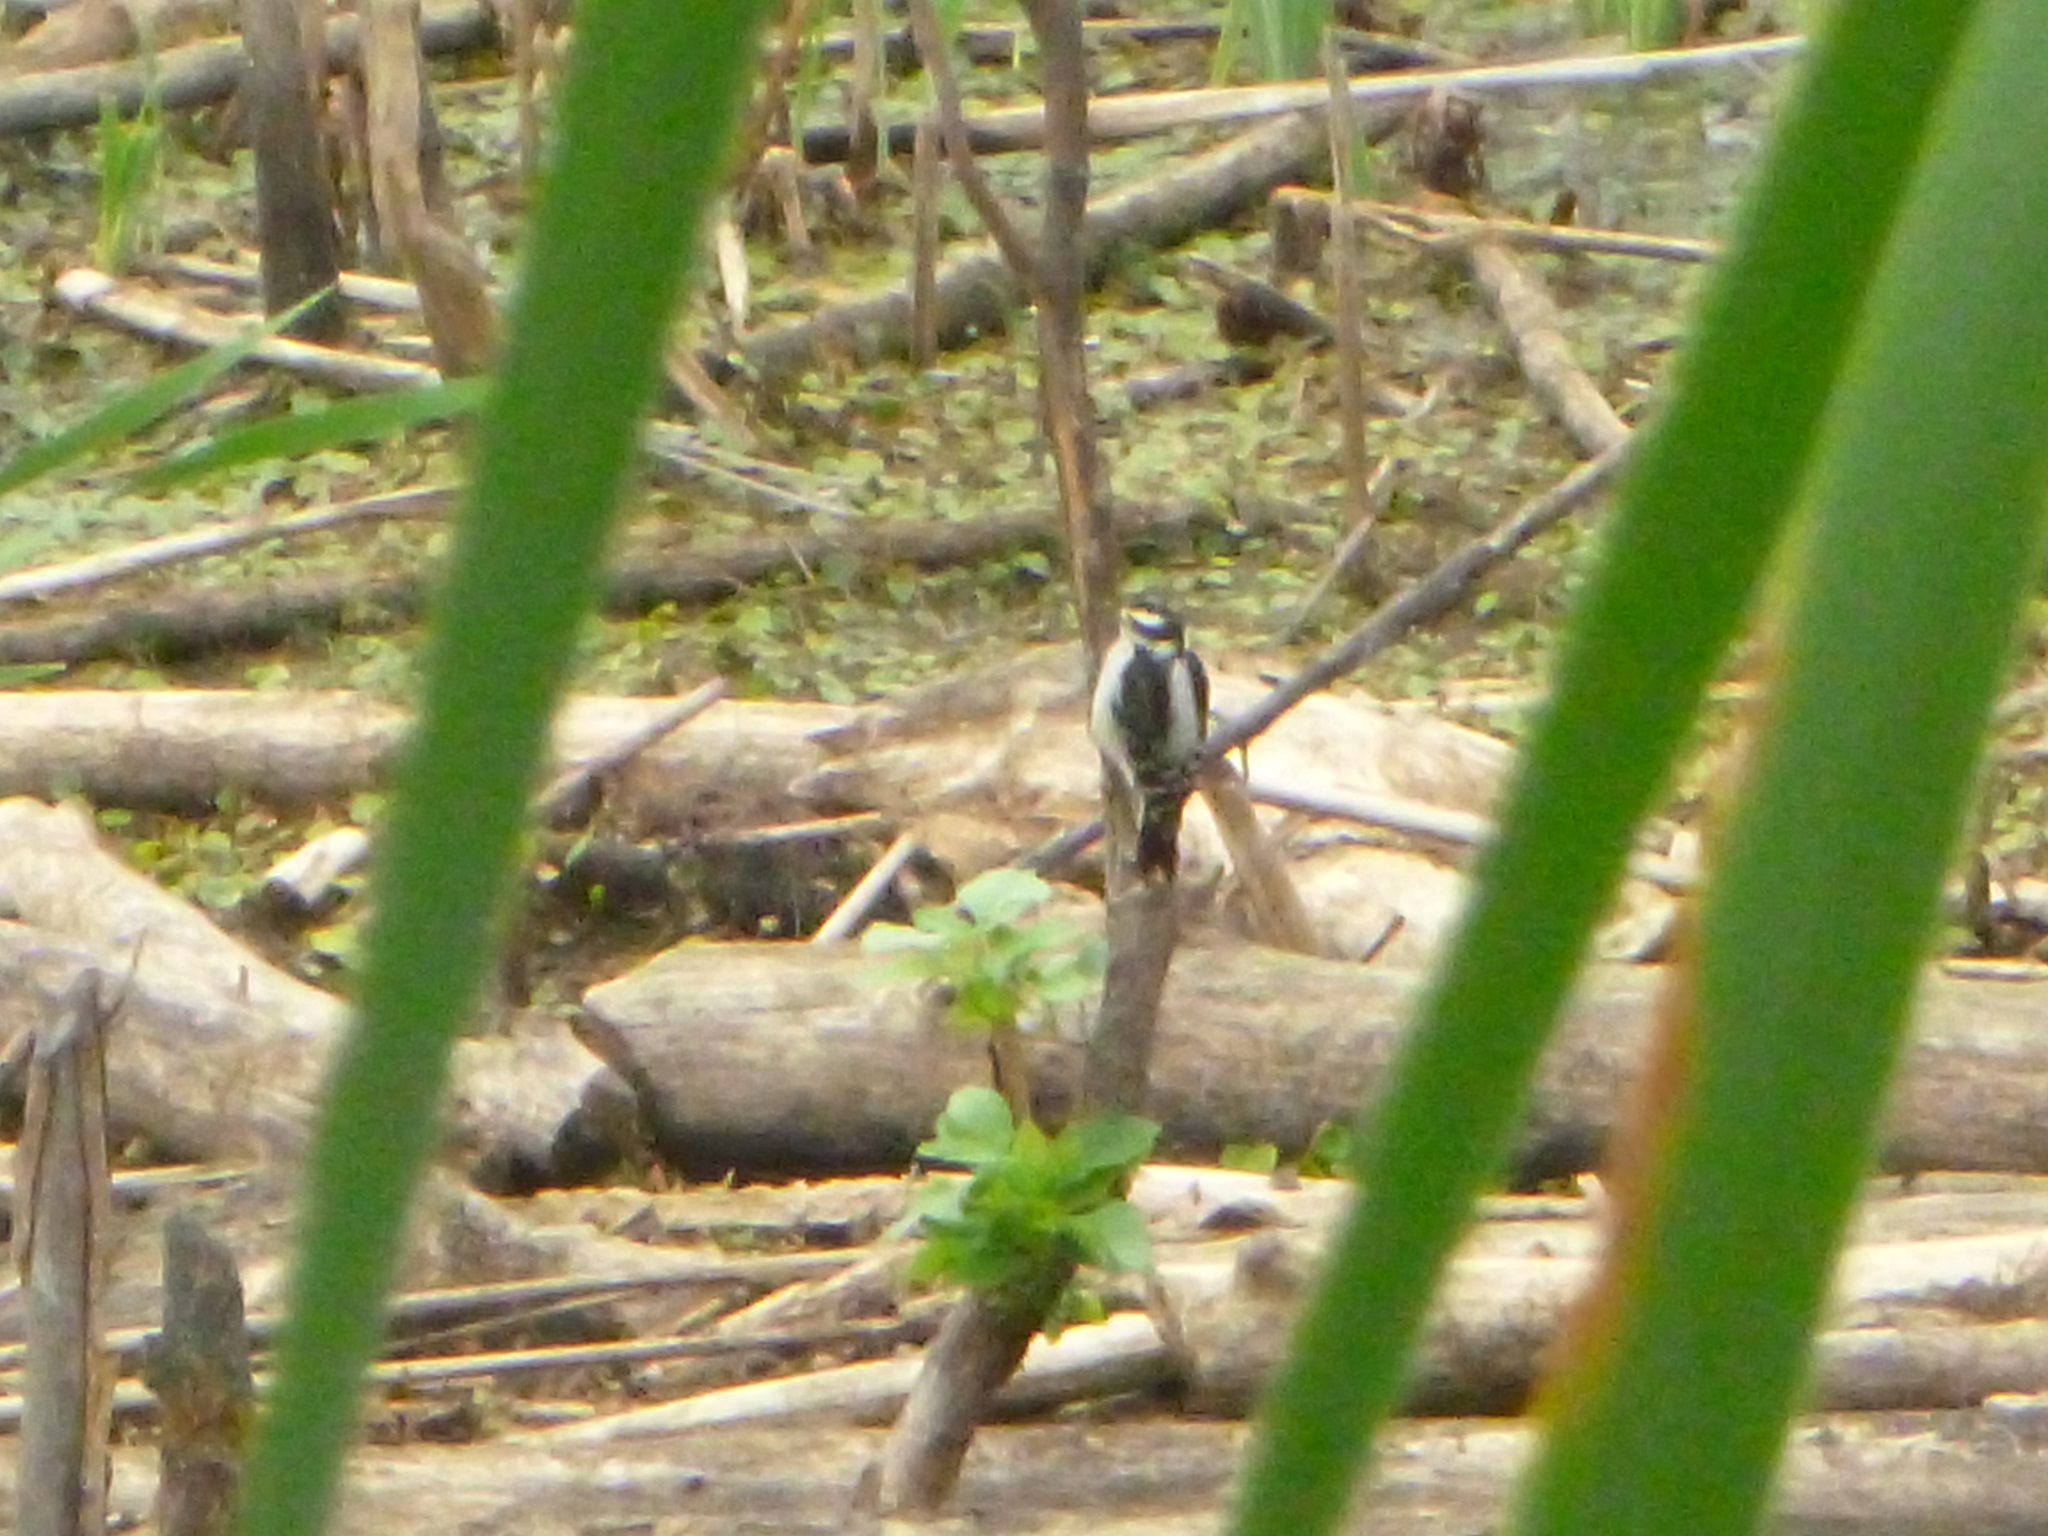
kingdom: Animalia
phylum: Chordata
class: Aves
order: Piciformes
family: Picidae
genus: Dryobates
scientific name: Dryobates pubescens
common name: Downy woodpecker
